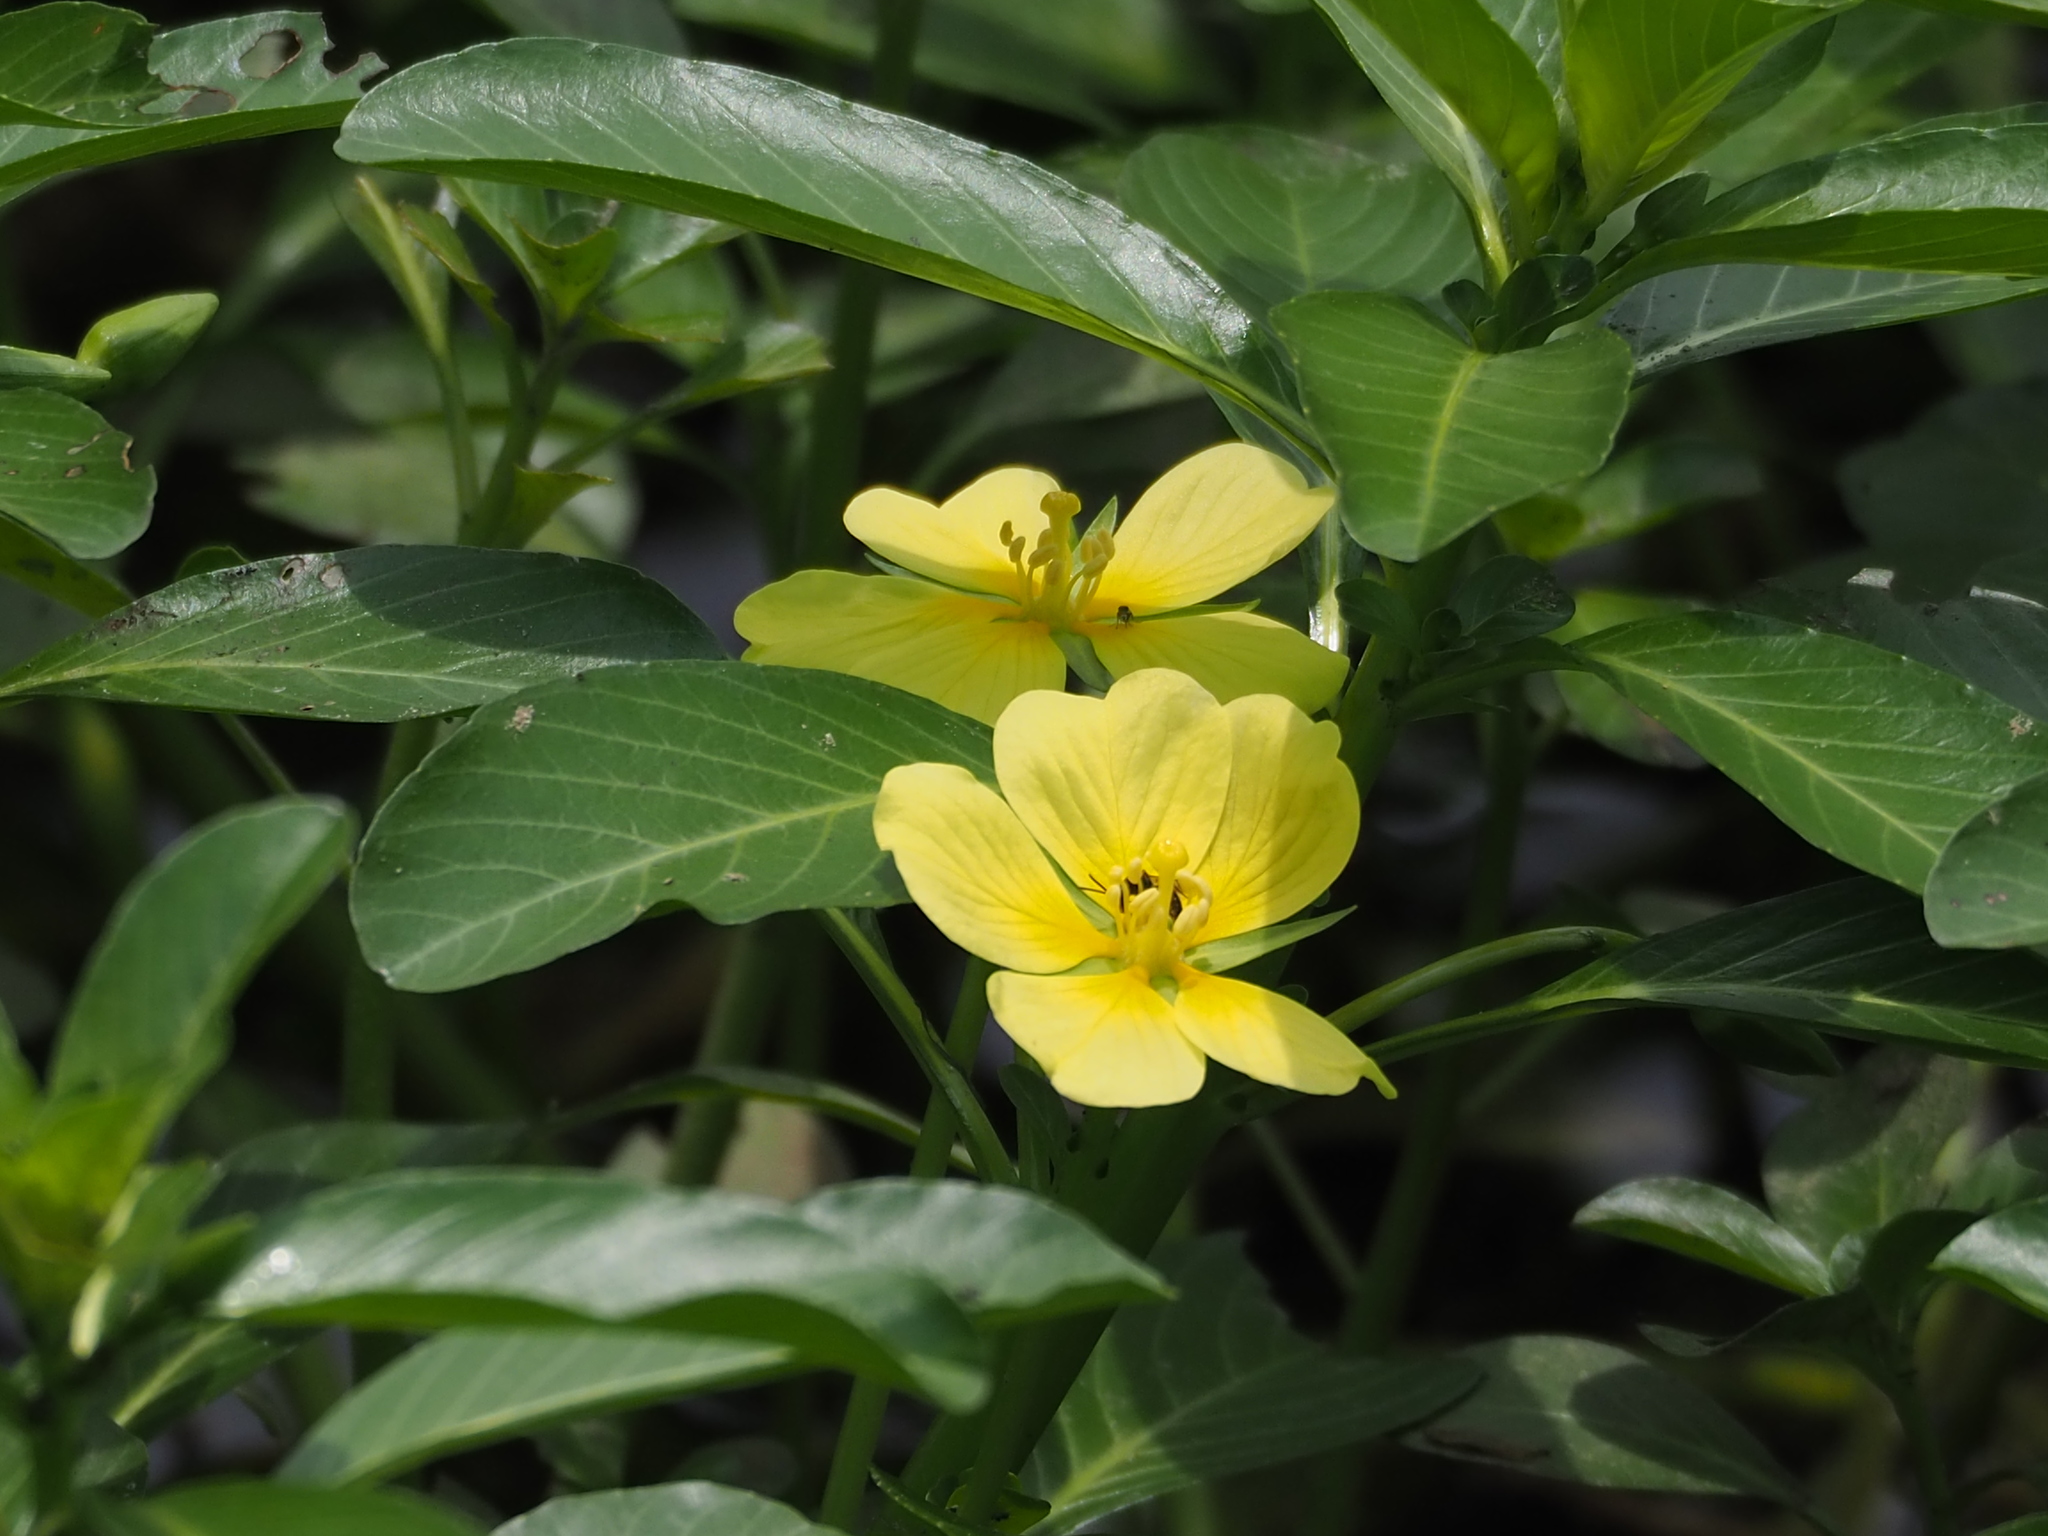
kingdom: Plantae
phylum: Tracheophyta
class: Magnoliopsida
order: Myrtales
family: Onagraceae
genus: Ludwigia
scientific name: Ludwigia taiwanensis
